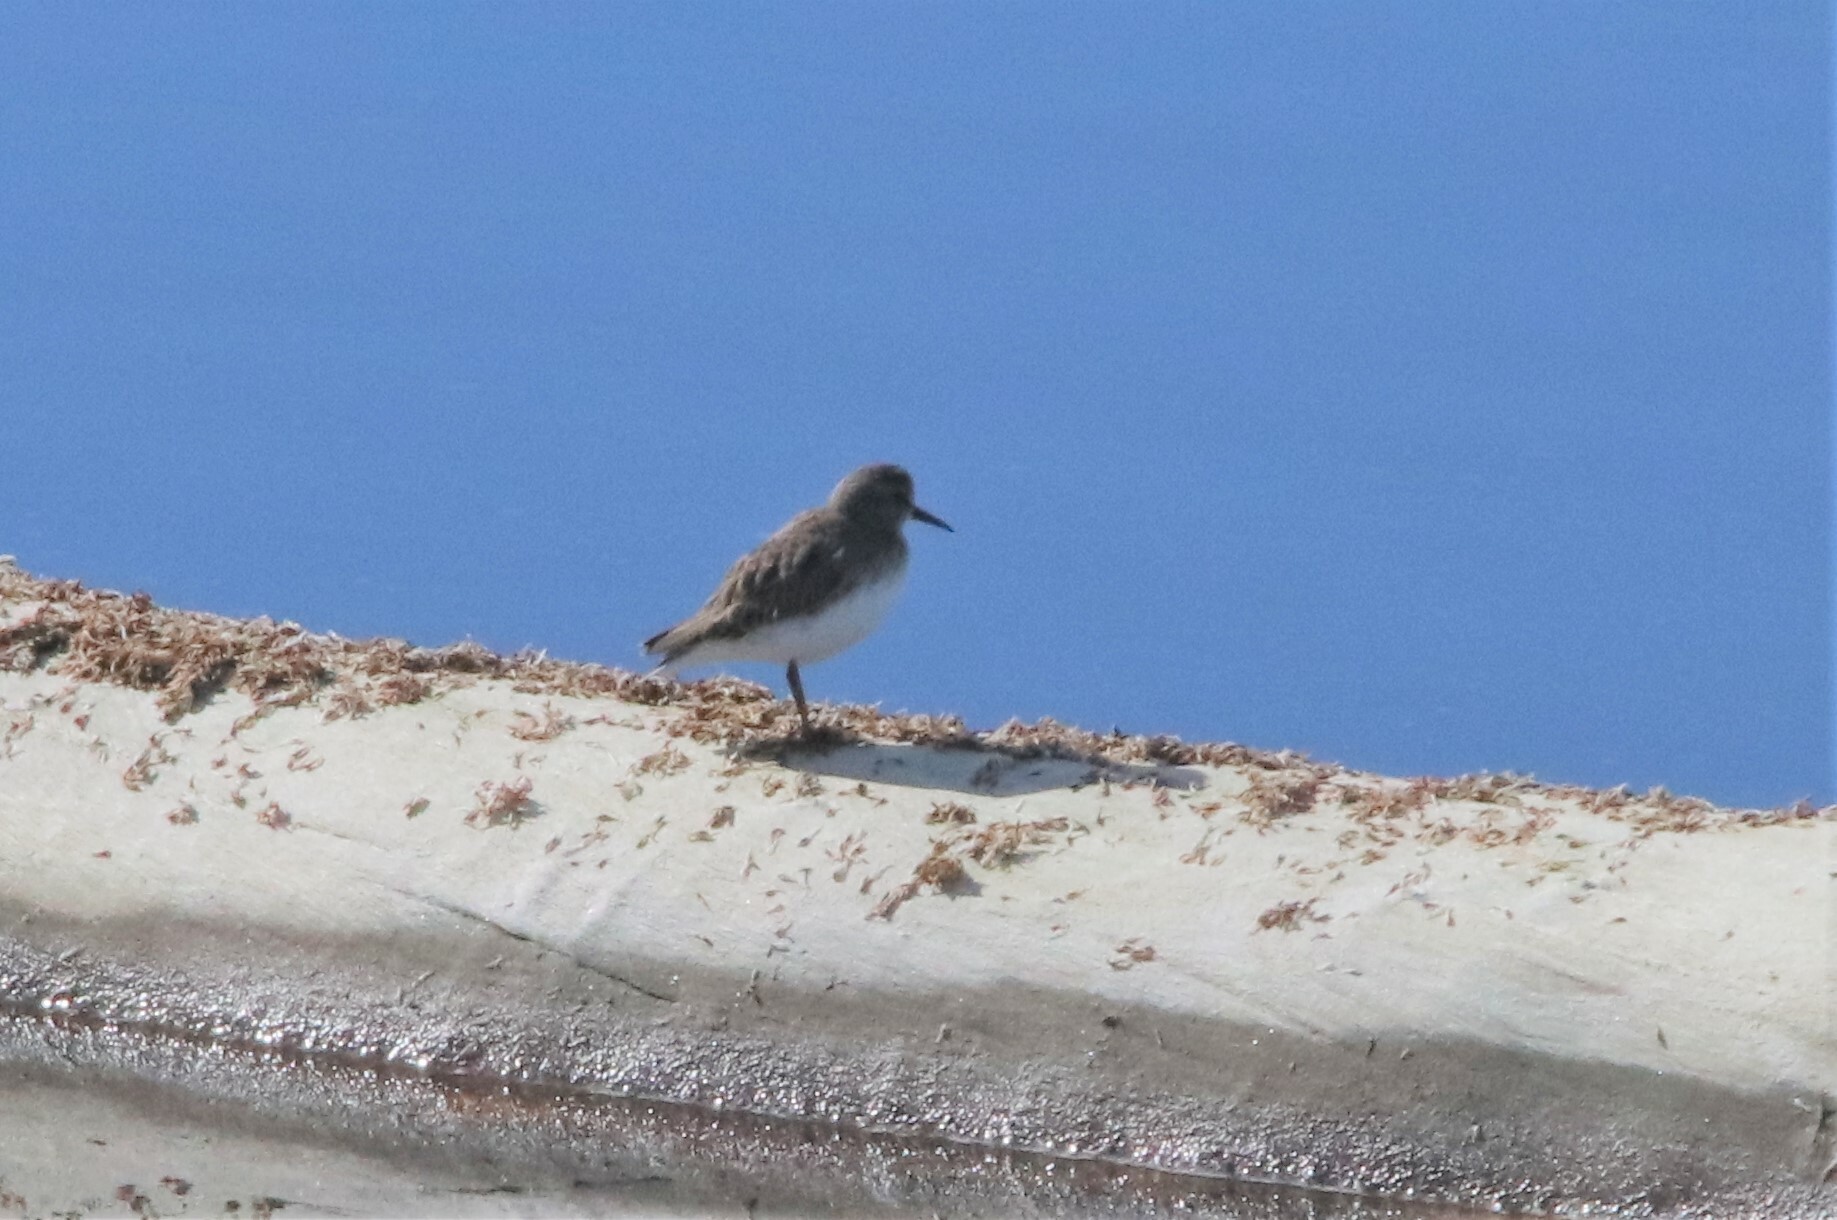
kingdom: Animalia
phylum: Chordata
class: Aves
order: Charadriiformes
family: Scolopacidae
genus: Calidris
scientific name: Calidris minutilla
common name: Least sandpiper
